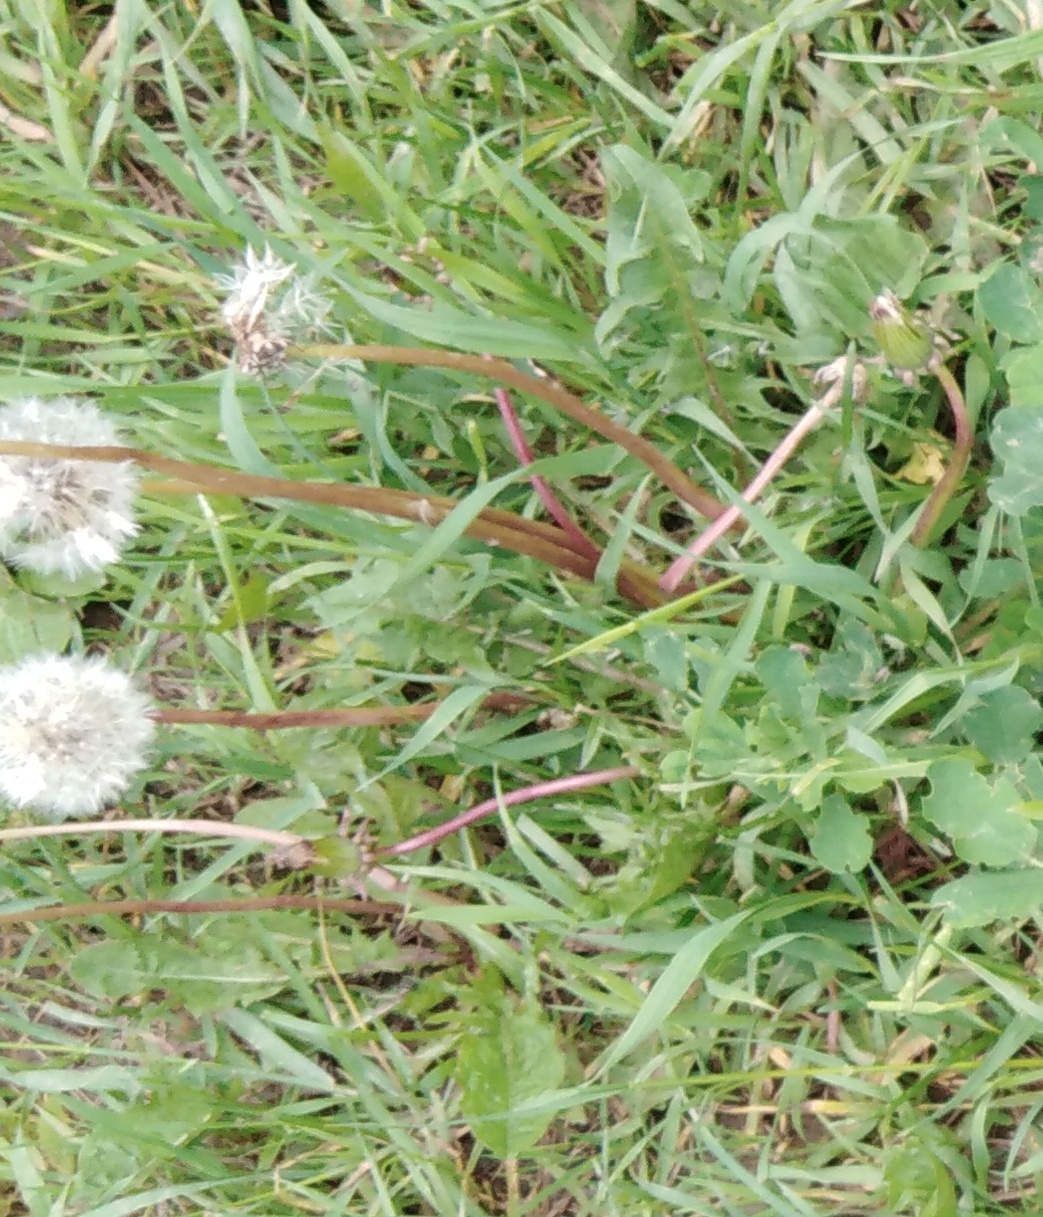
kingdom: Plantae
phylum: Tracheophyta
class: Magnoliopsida
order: Asterales
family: Asteraceae
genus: Taraxacum
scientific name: Taraxacum officinale
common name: Common dandelion
